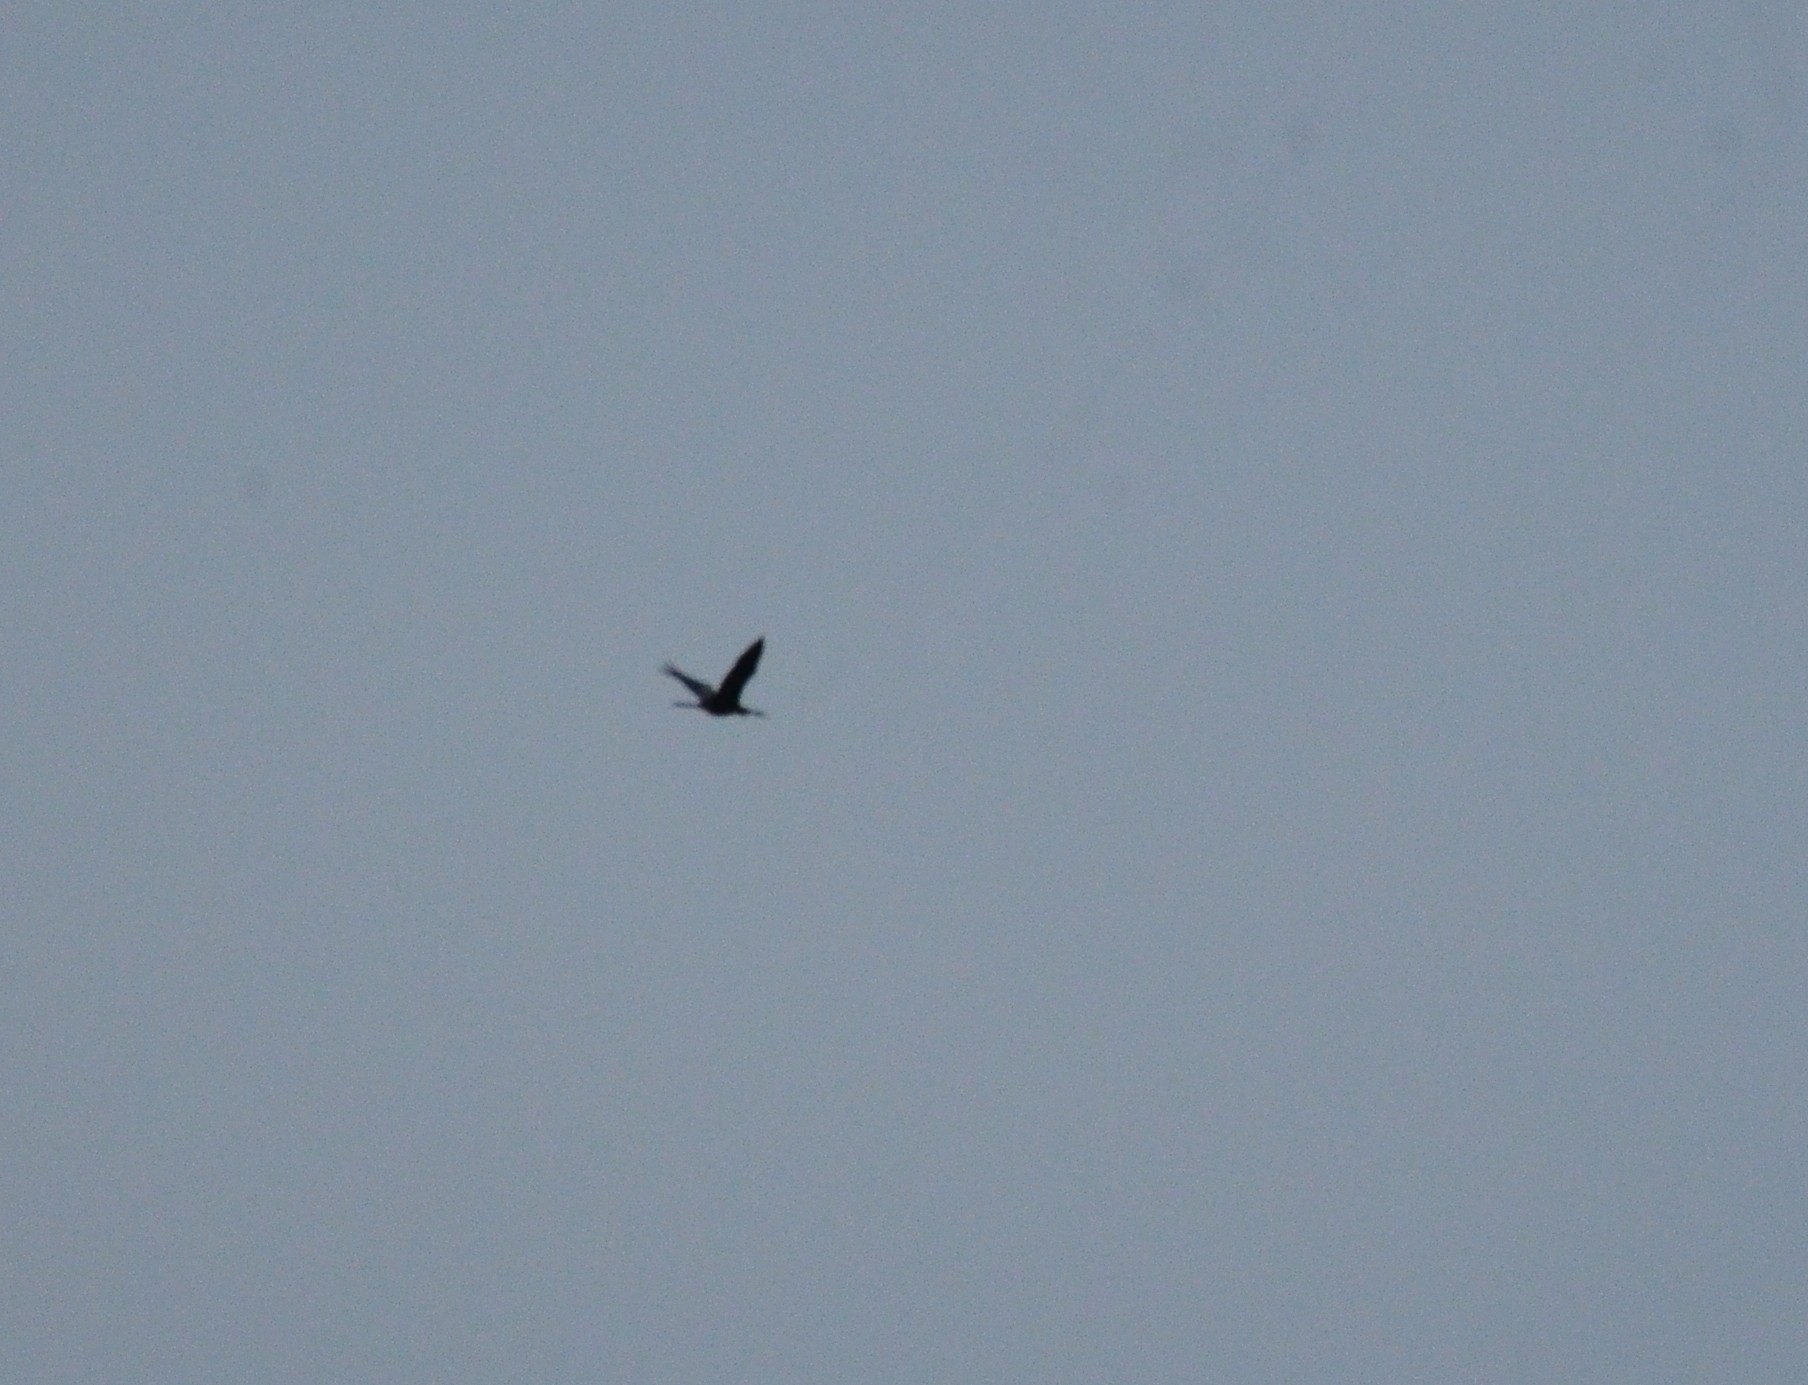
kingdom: Animalia
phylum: Chordata
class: Aves
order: Suliformes
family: Anhingidae
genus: Anhinga
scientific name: Anhinga melanogaster
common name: Oriental darter
